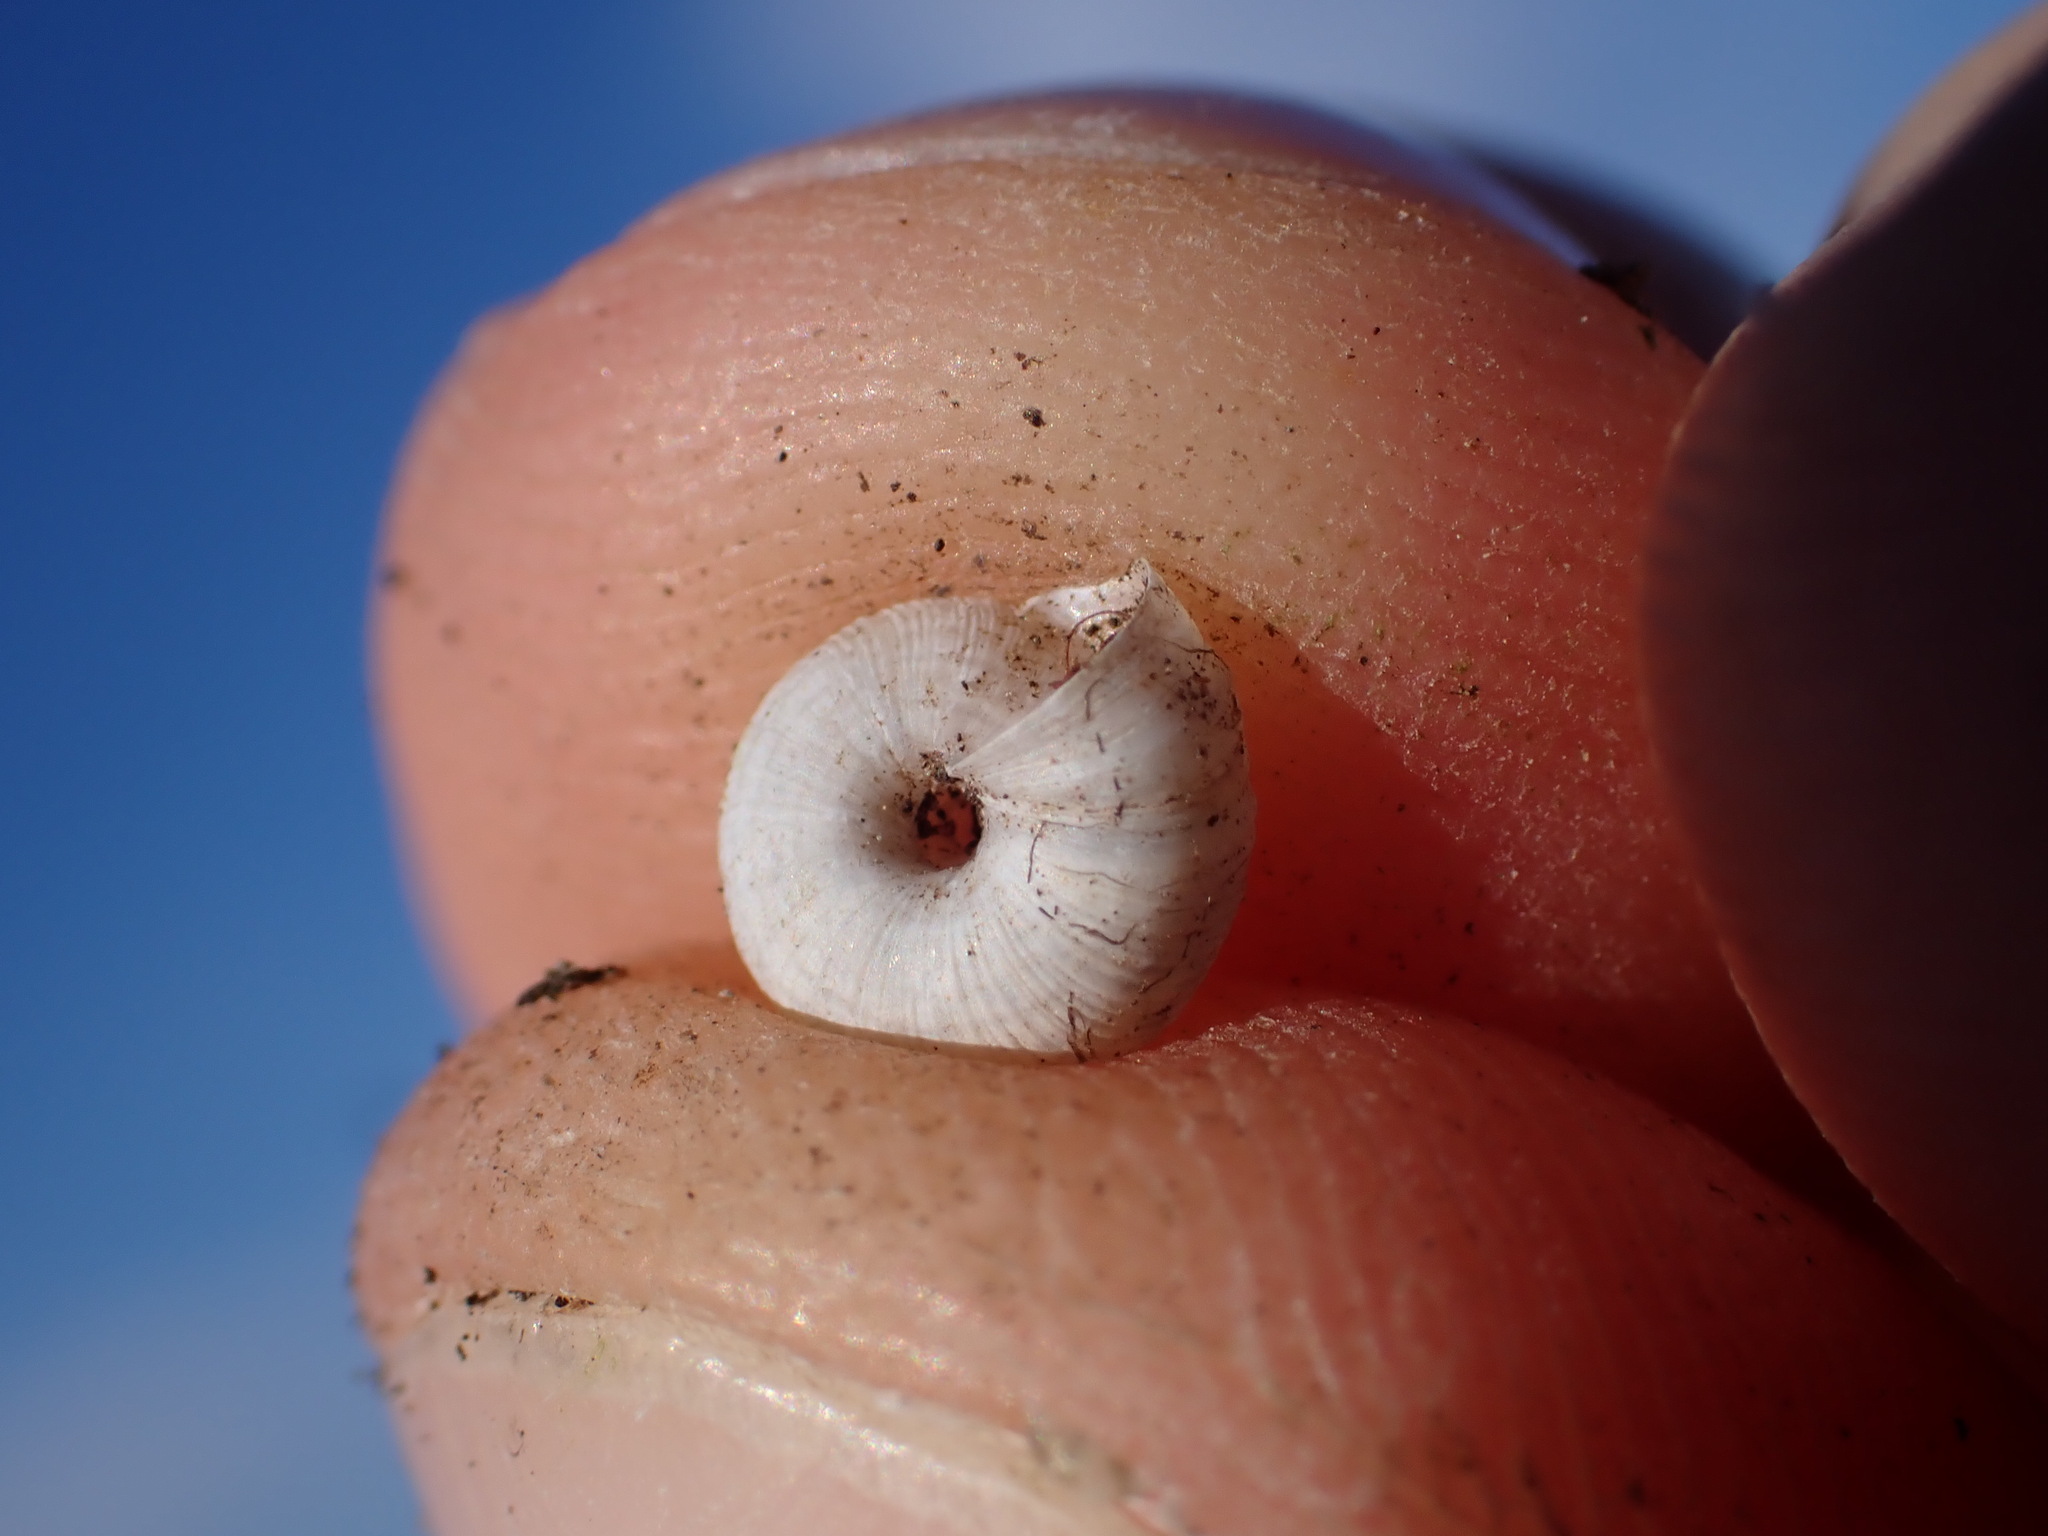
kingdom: Animalia
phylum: Mollusca
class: Gastropoda
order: Stylommatophora
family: Geomitridae
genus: Candidula
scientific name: Candidula rugosiuscula
